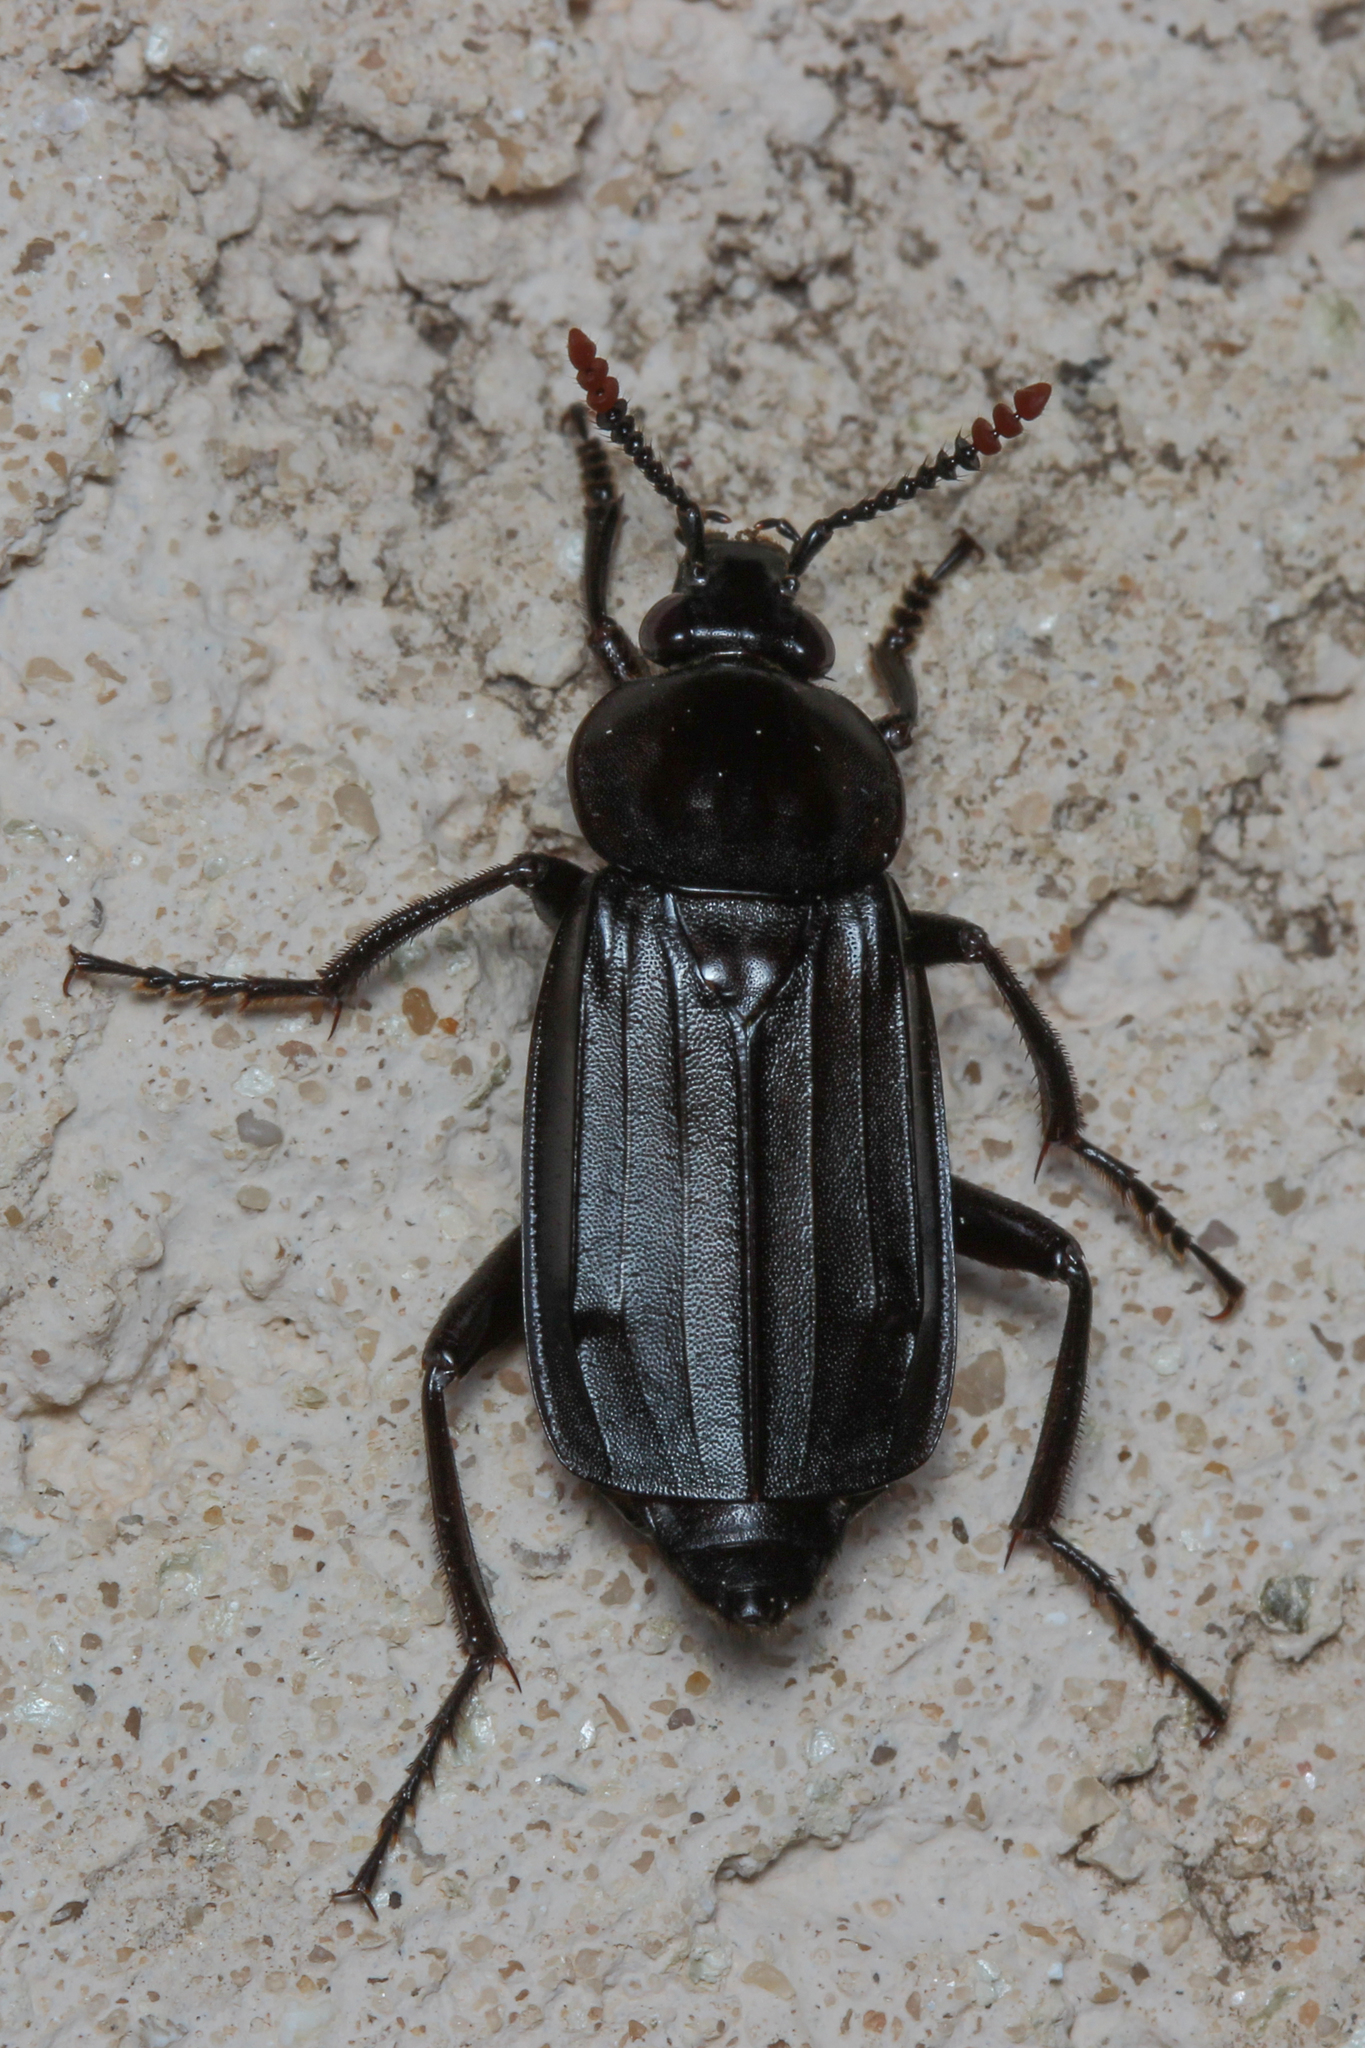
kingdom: Animalia
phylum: Arthropoda
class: Insecta
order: Coleoptera
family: Staphylinidae
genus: Necrodes
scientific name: Necrodes littoralis
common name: Shore sexton beetle
